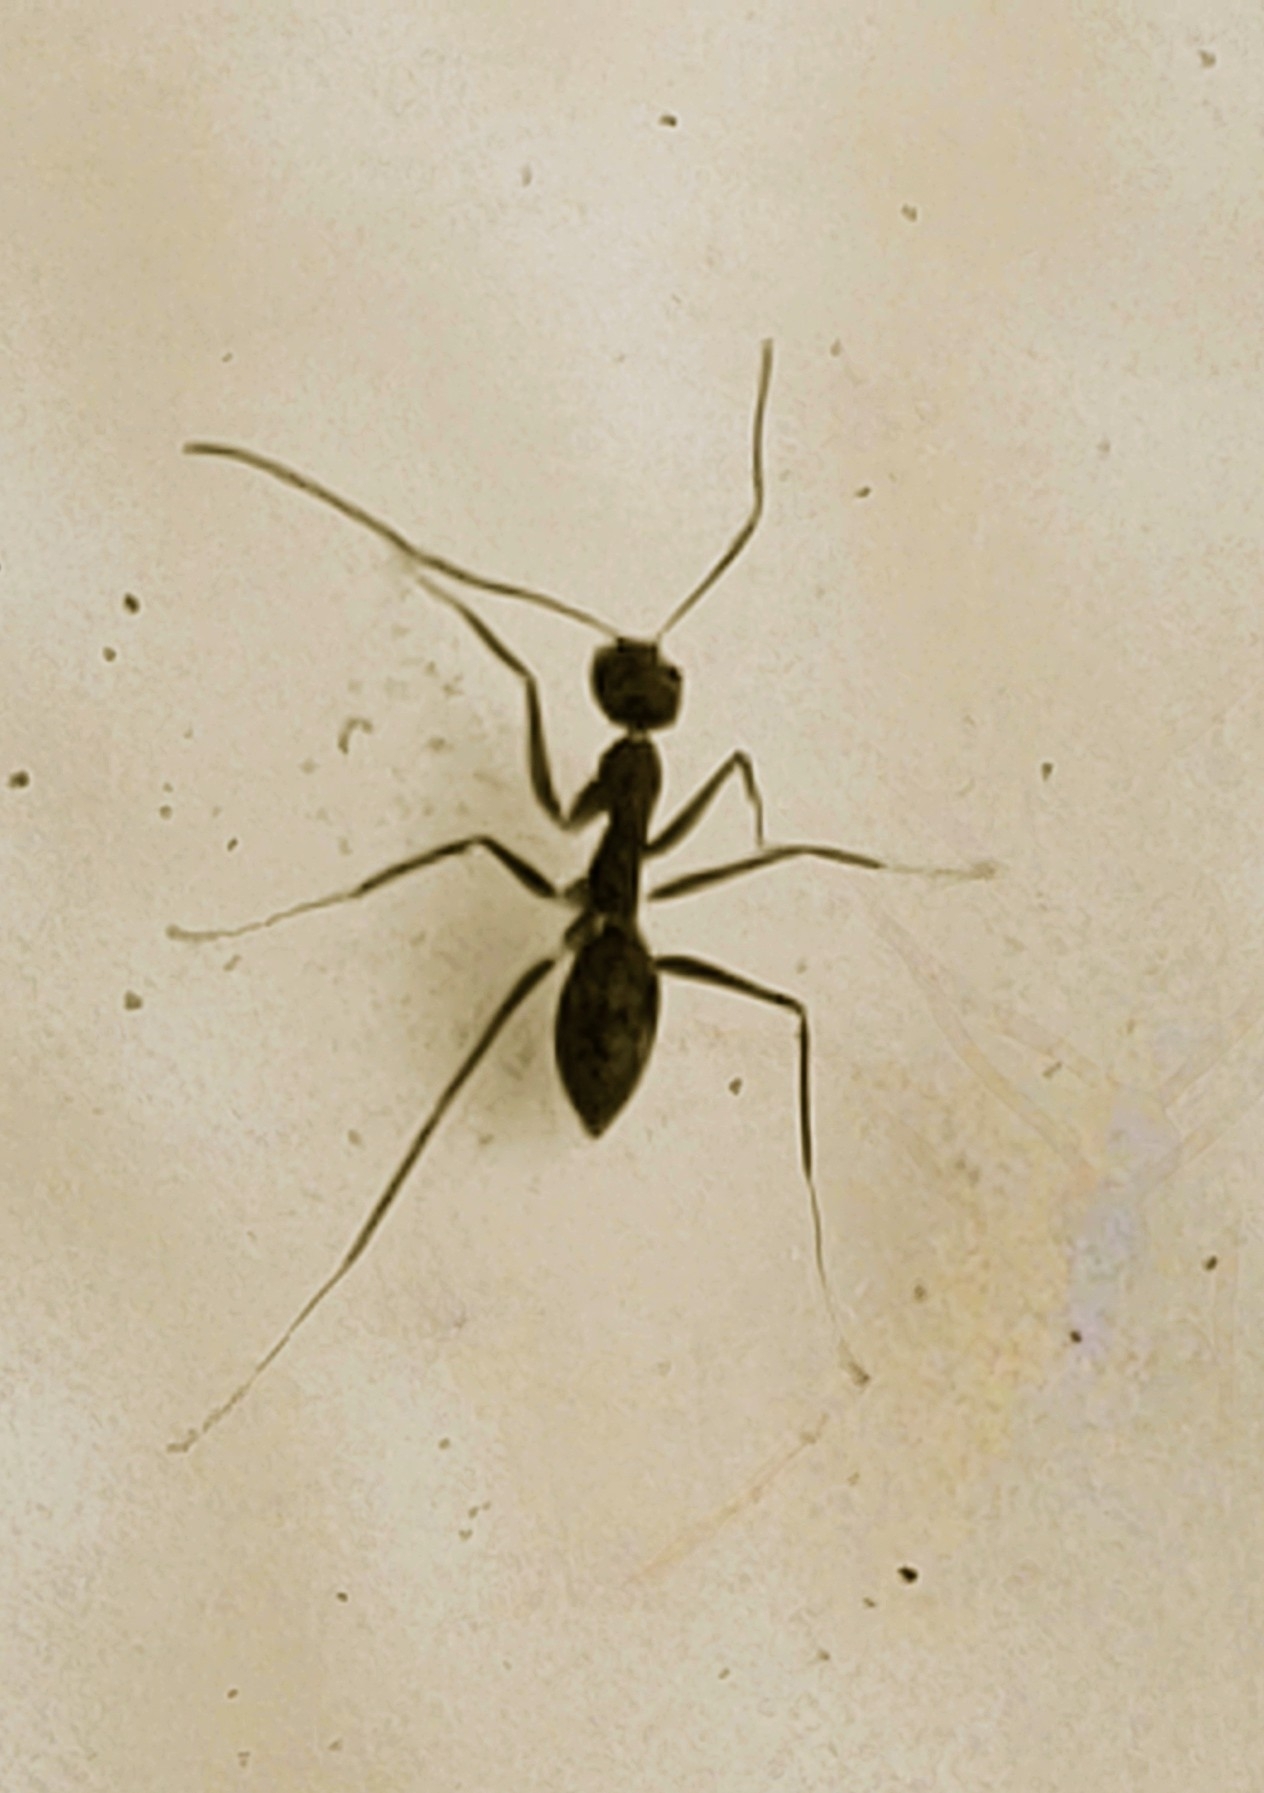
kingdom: Animalia
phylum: Arthropoda
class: Insecta
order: Hymenoptera
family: Formicidae
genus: Paratrechina
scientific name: Paratrechina longicornis
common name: Longhorned crazy ant
